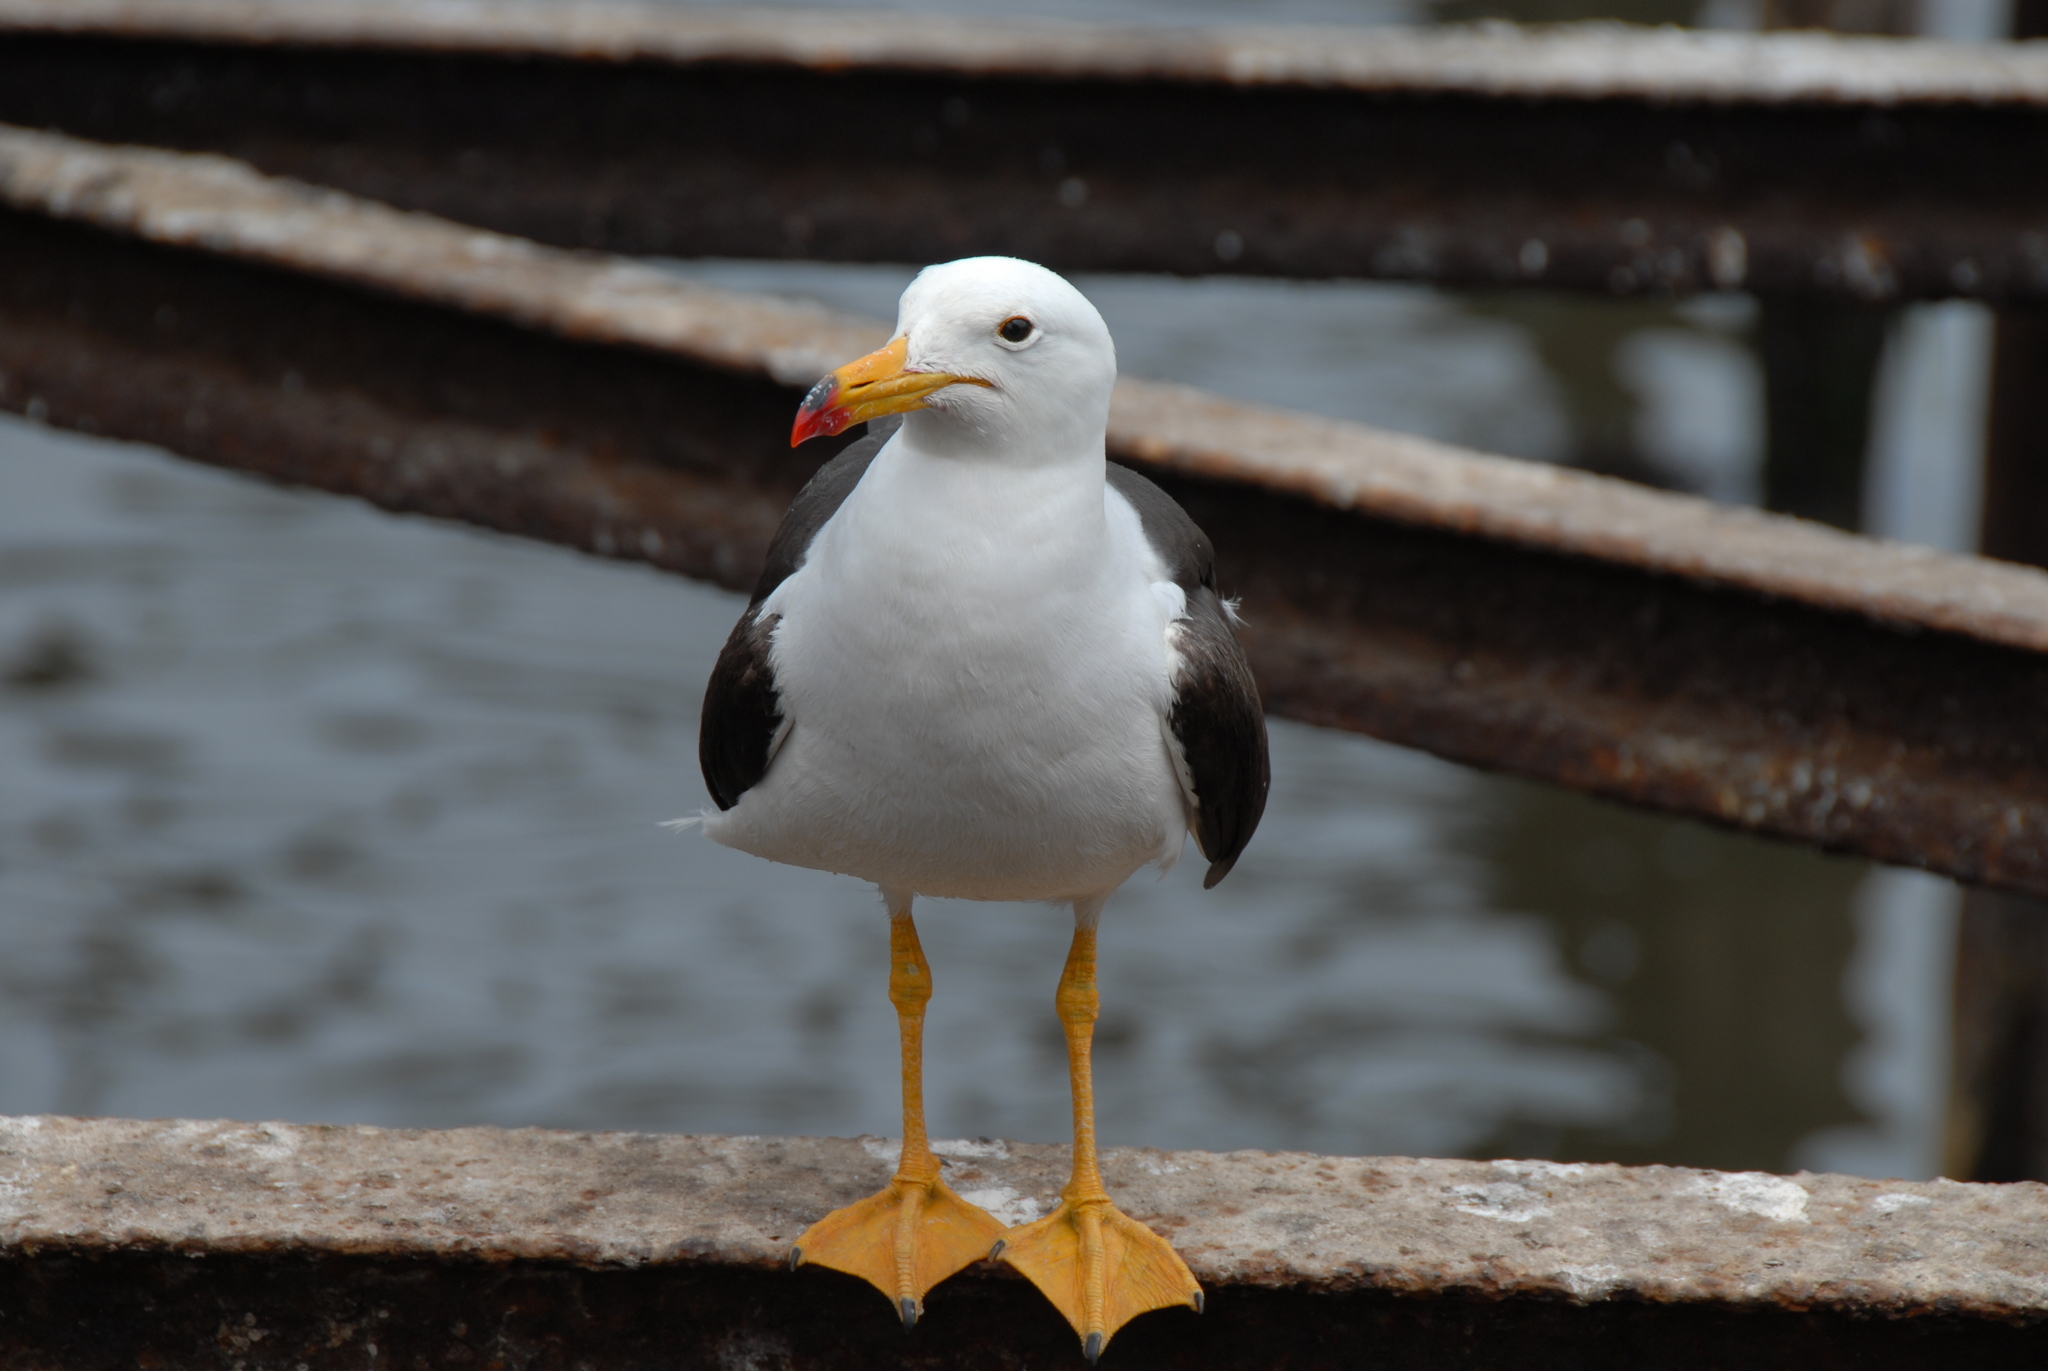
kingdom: Animalia
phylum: Chordata
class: Aves
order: Charadriiformes
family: Laridae
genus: Larus
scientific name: Larus belcheri
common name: Belcher's gull
